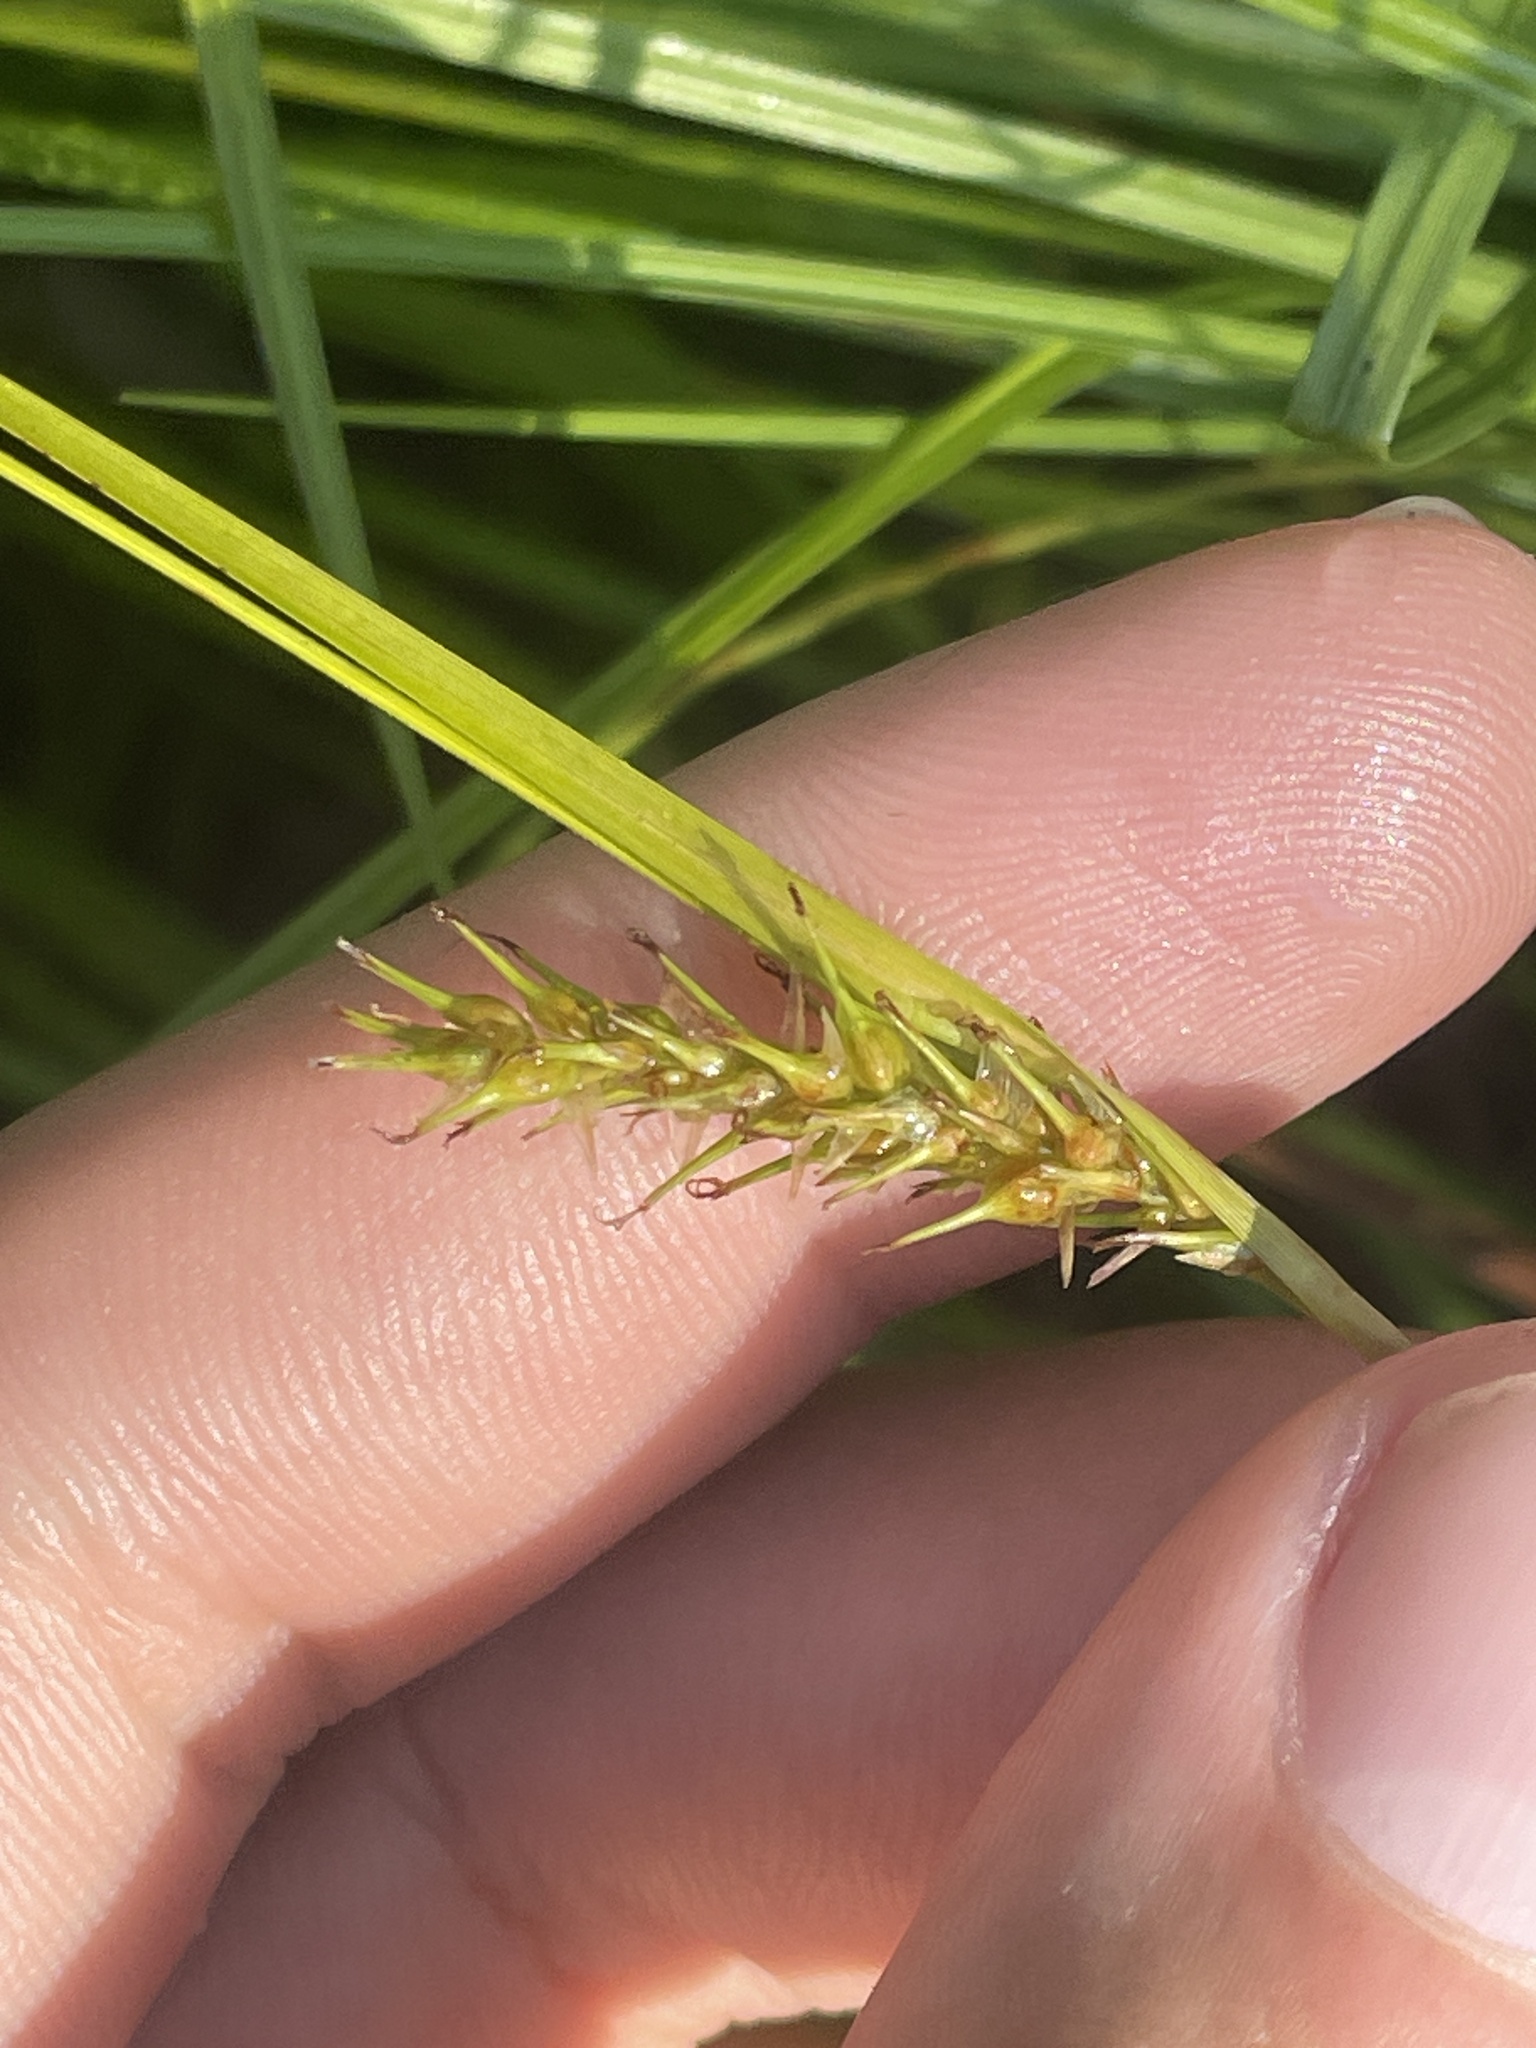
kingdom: Plantae
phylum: Tracheophyta
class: Liliopsida
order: Poales
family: Cyperaceae
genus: Carex
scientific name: Carex vesicaria
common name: Bladder-sedge
